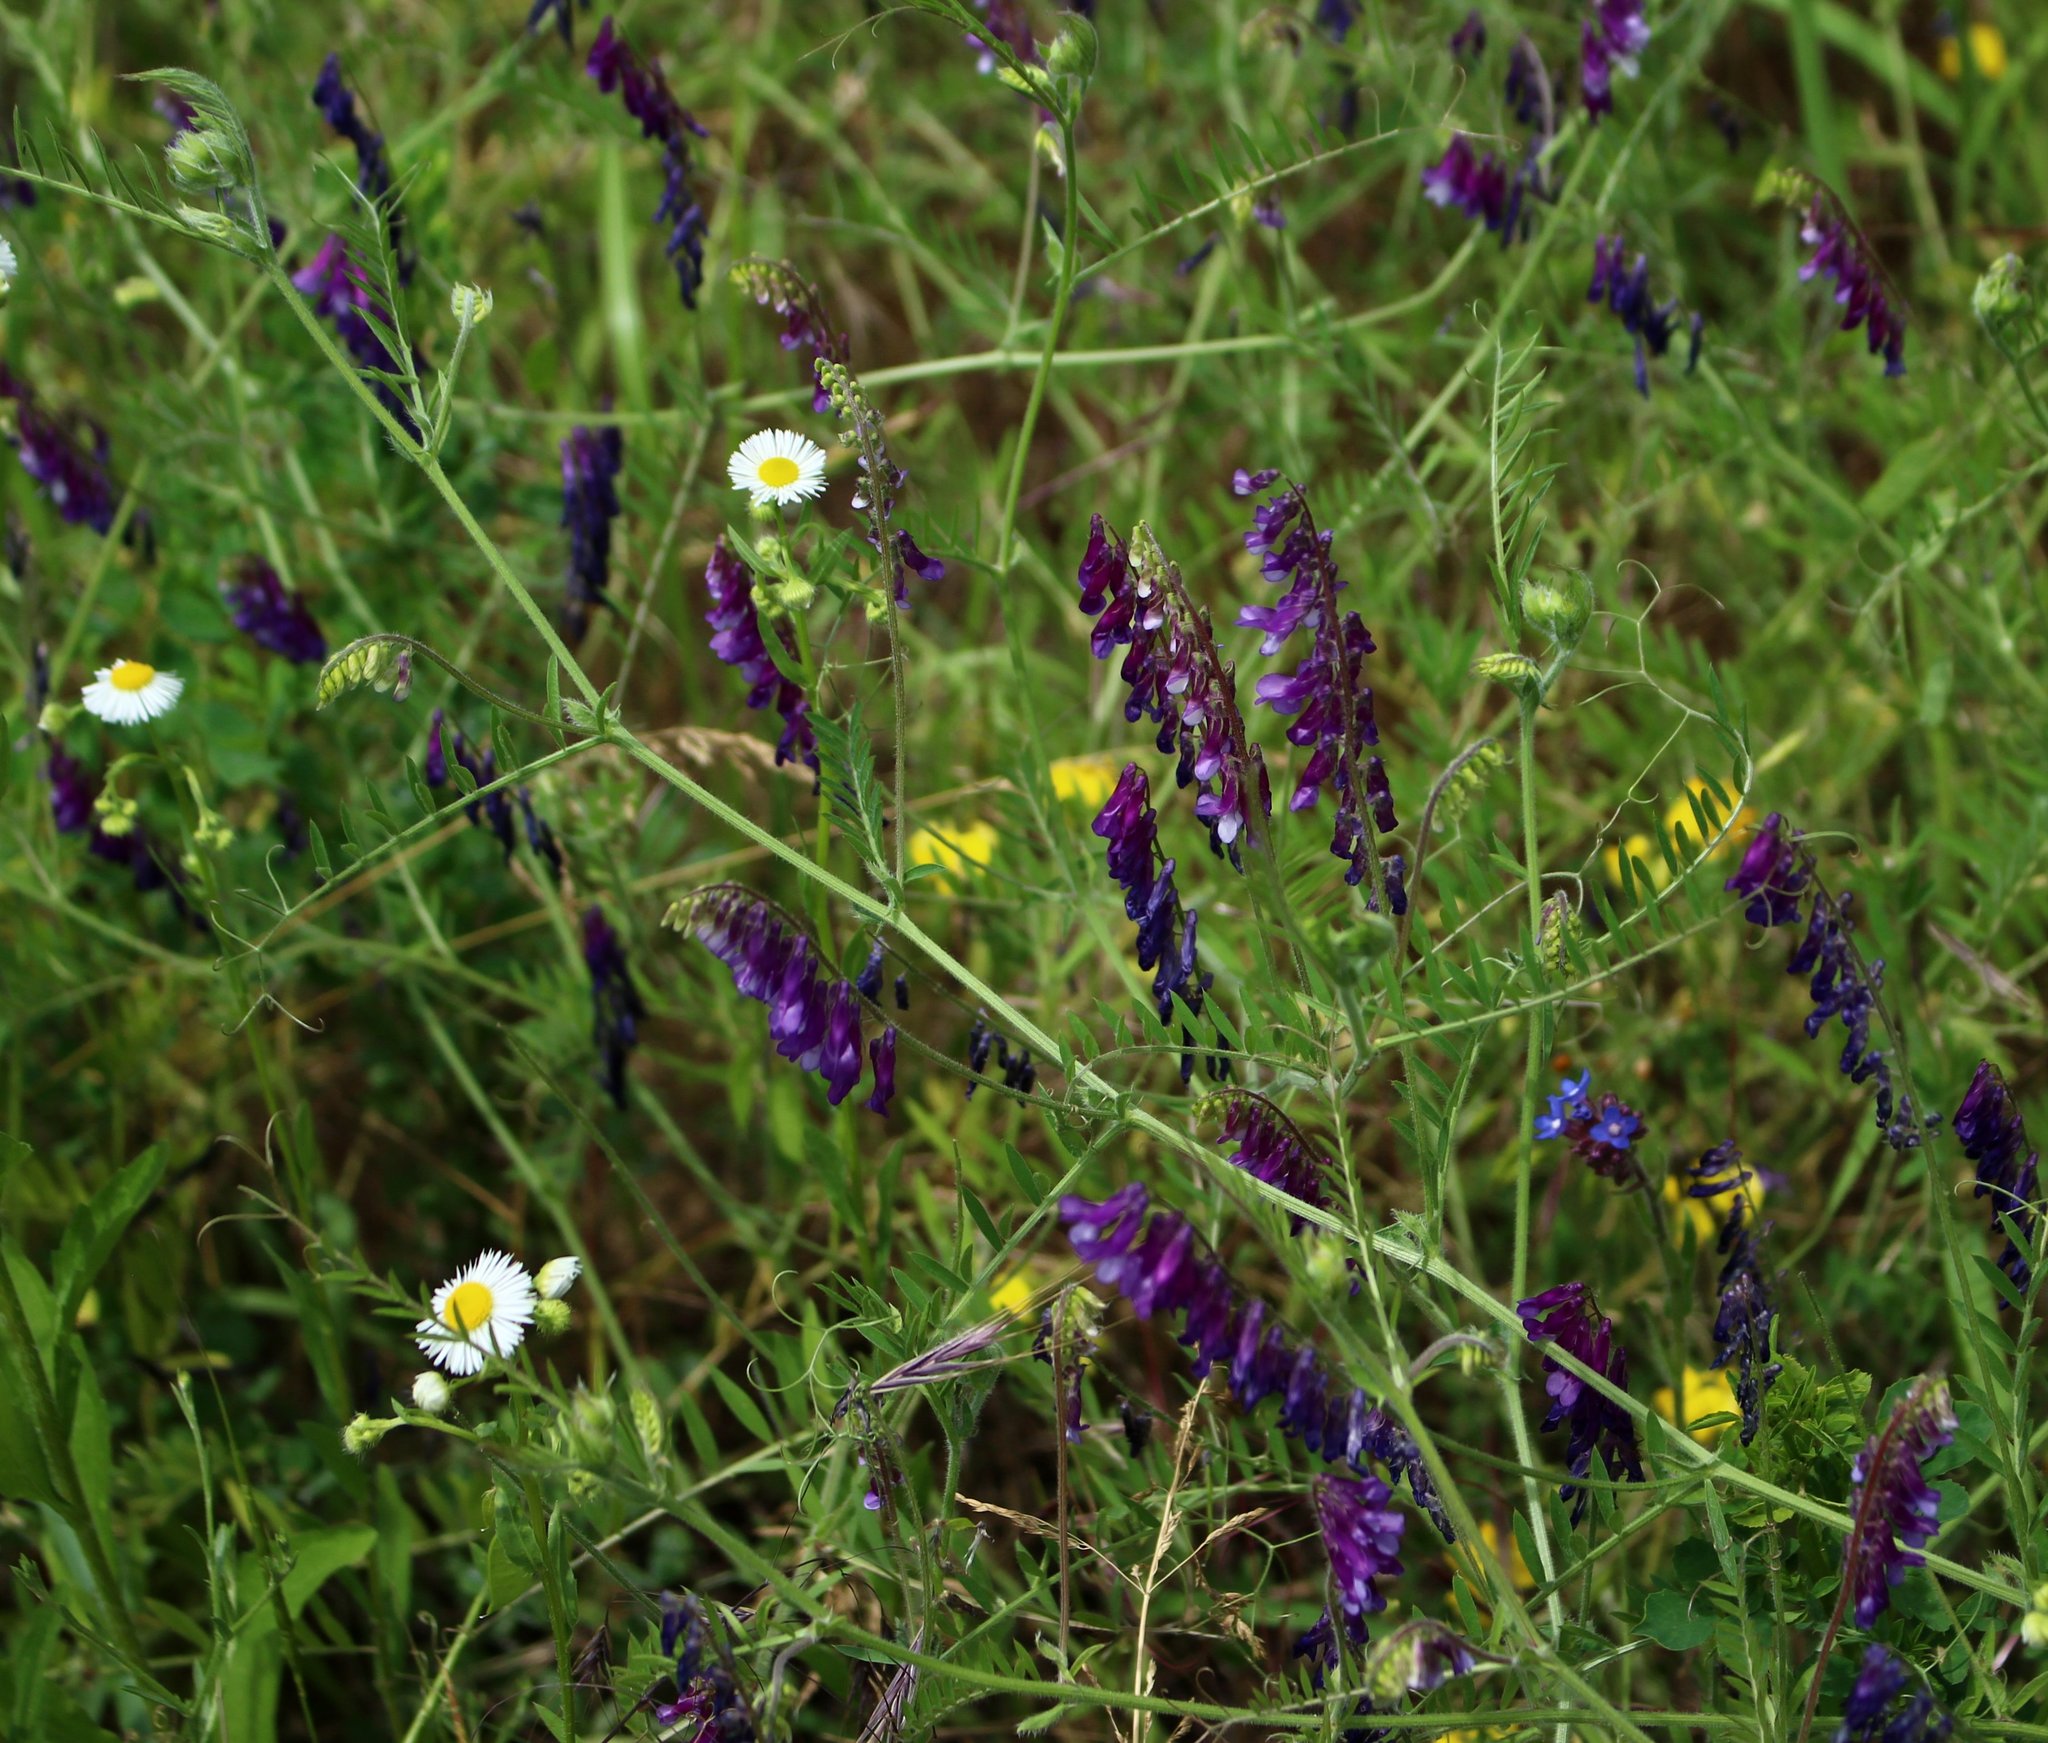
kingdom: Plantae
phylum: Tracheophyta
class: Magnoliopsida
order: Fabales
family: Fabaceae
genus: Vicia
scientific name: Vicia villosa
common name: Fodder vetch
